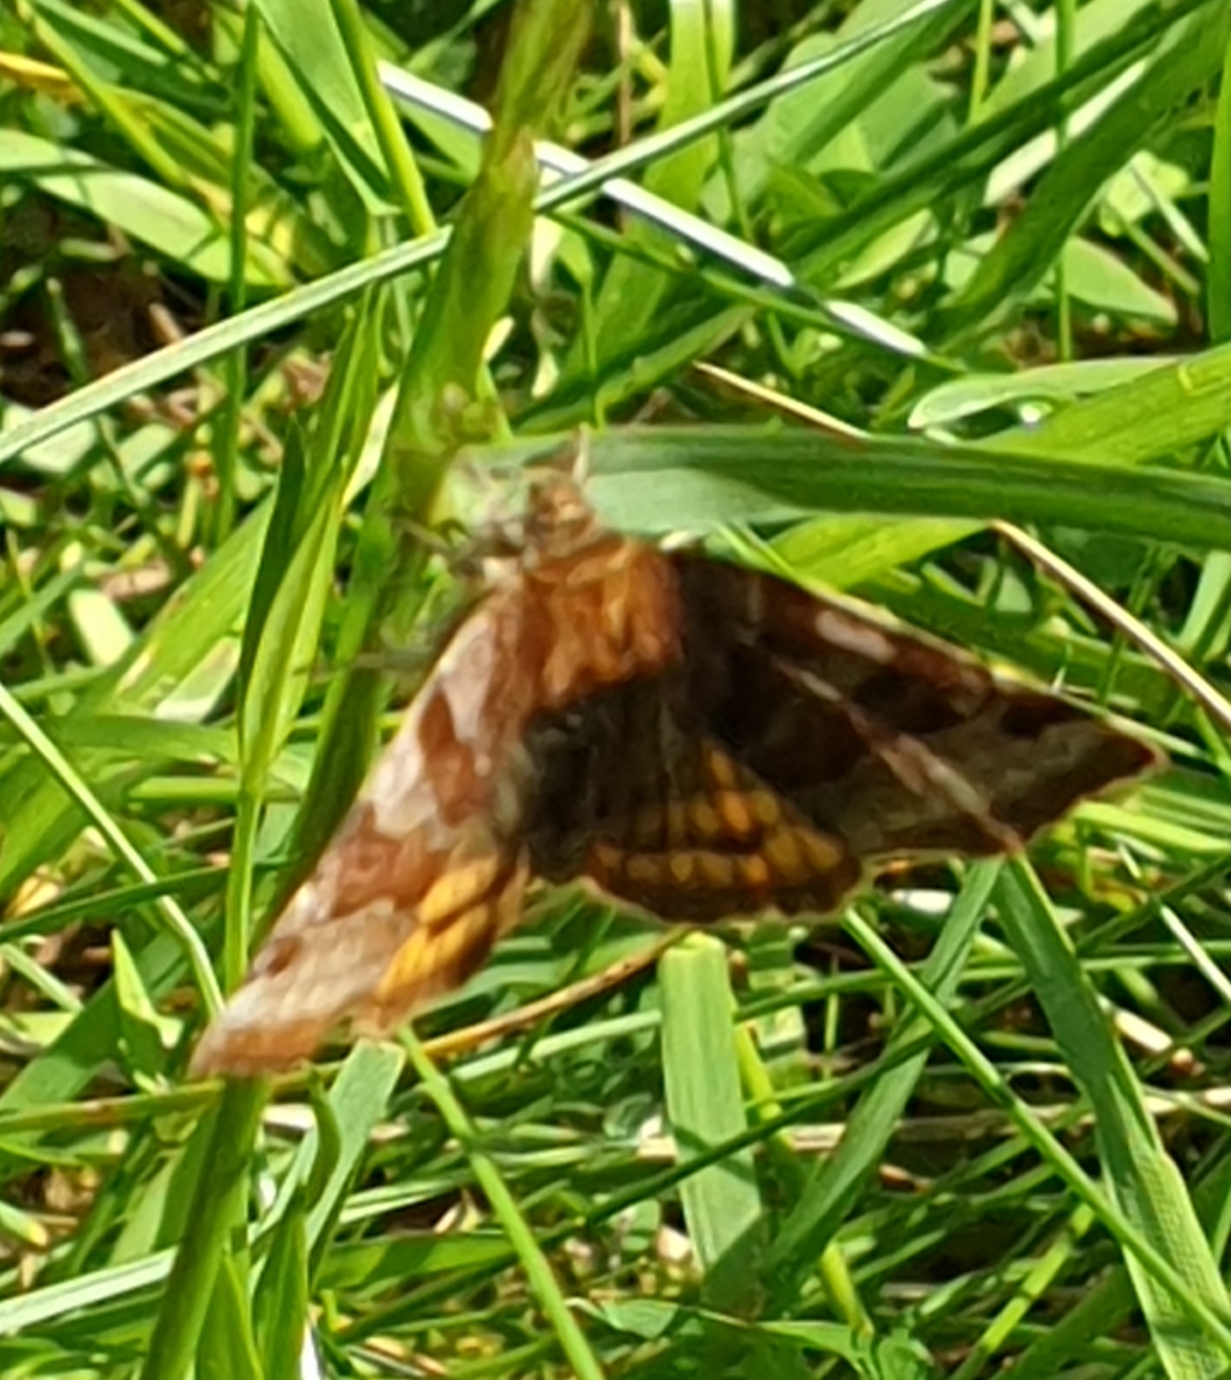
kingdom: Animalia
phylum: Arthropoda
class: Insecta
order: Lepidoptera
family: Erebidae
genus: Euclidia
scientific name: Euclidia glyphica
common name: Burnet companion
